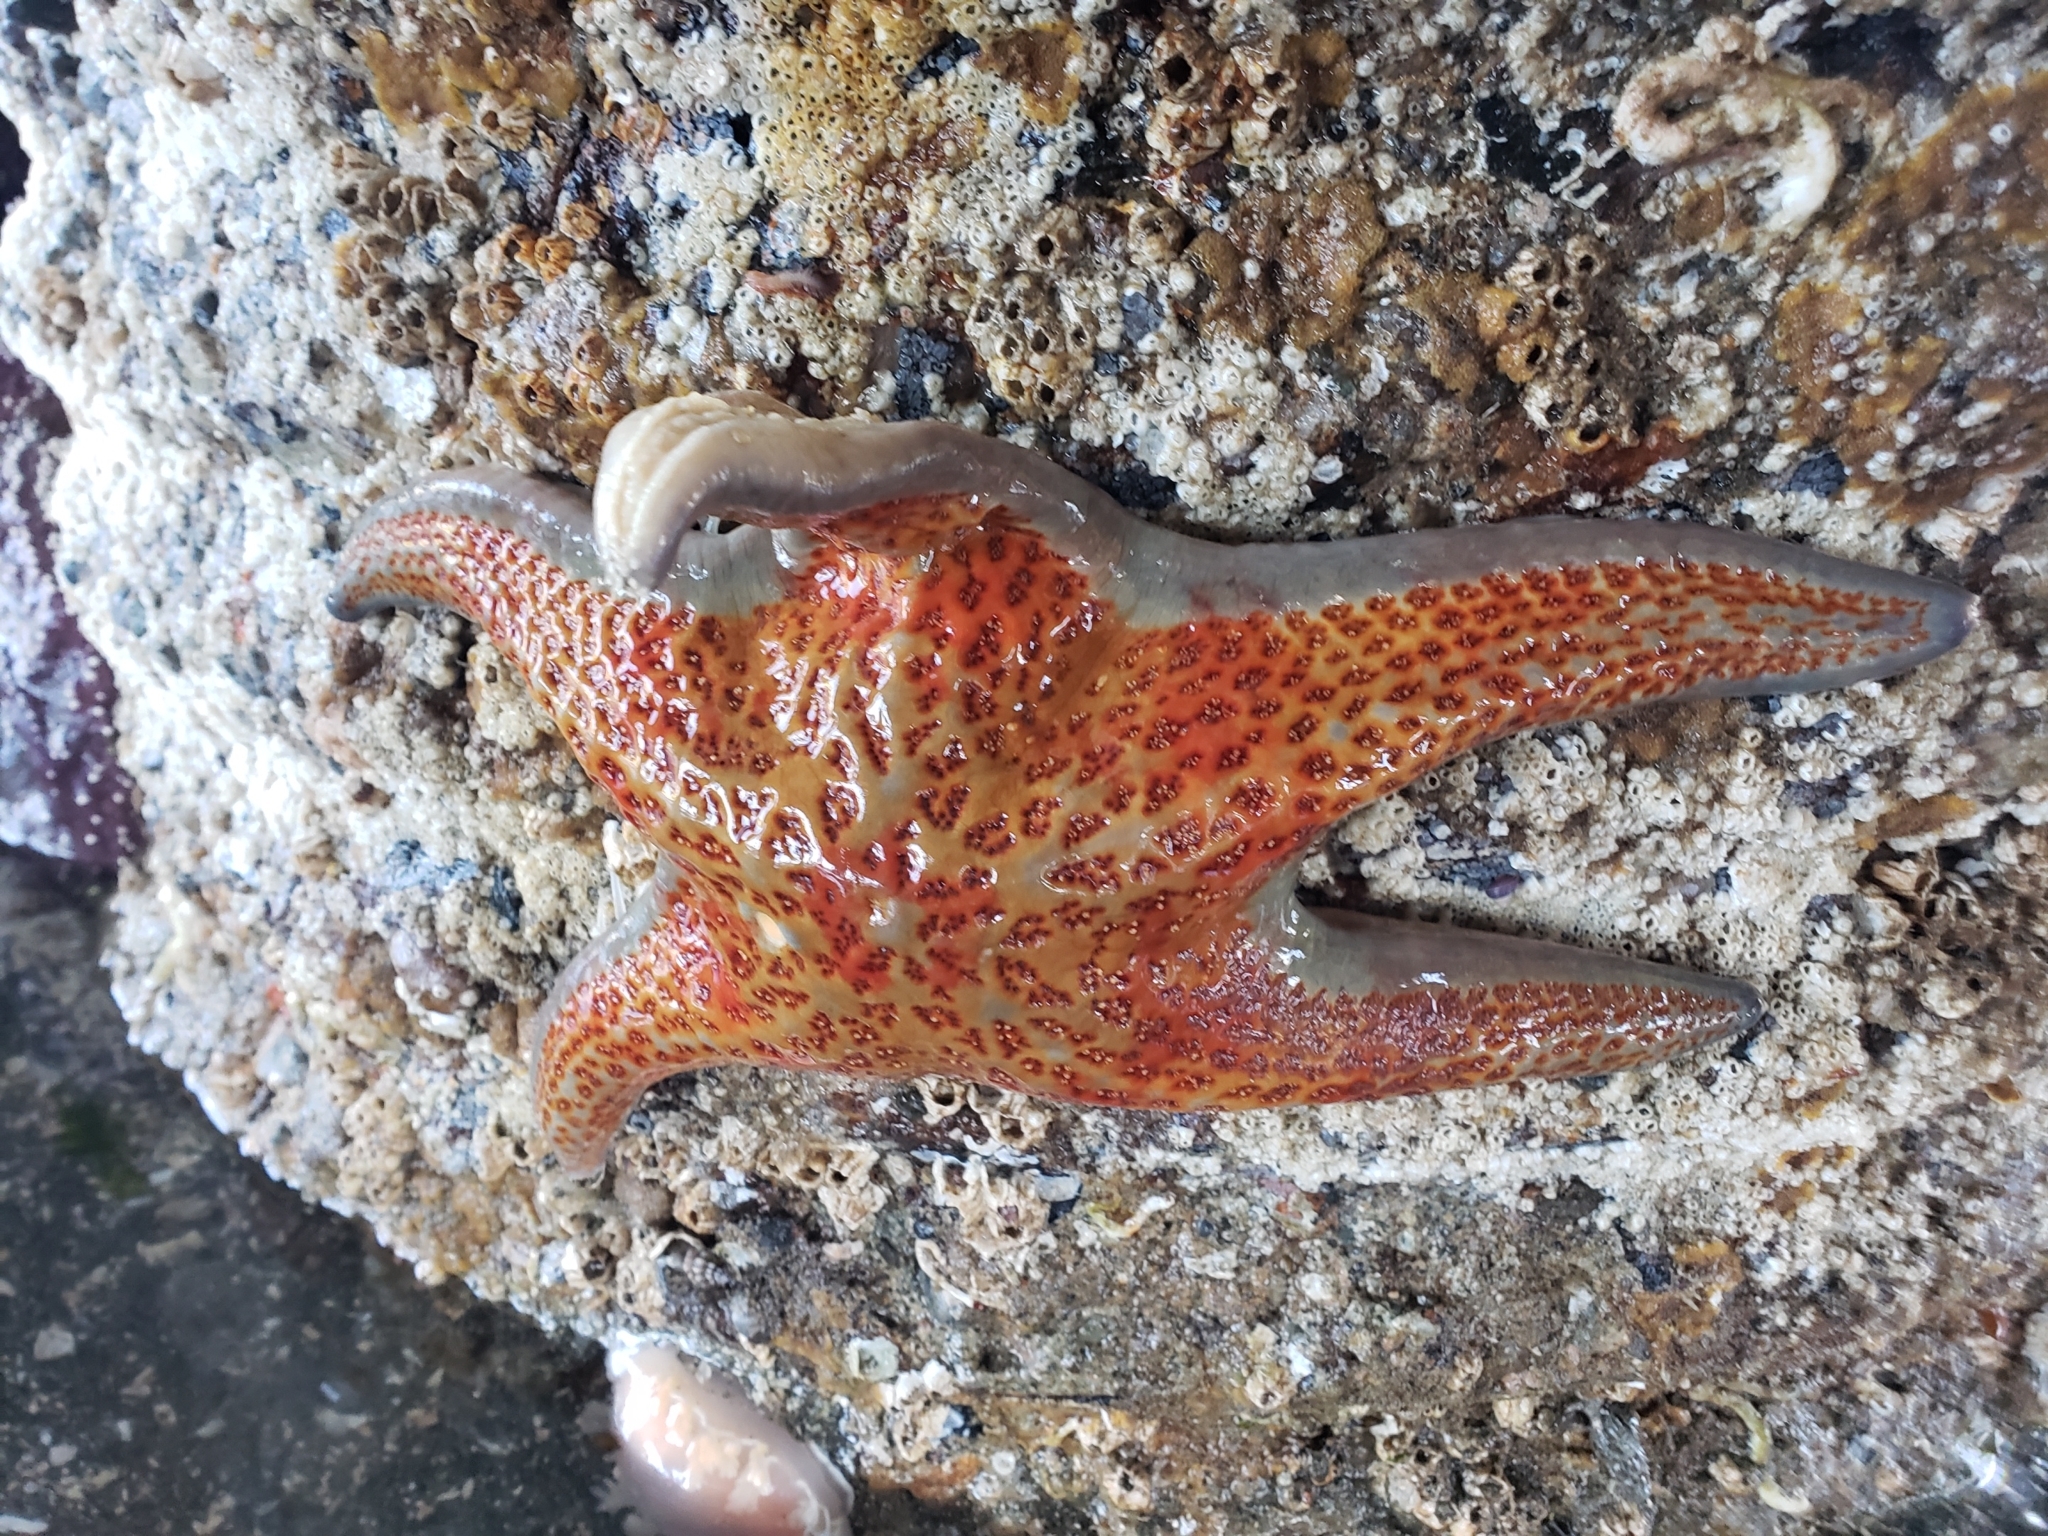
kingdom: Animalia
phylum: Echinodermata
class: Asteroidea
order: Valvatida
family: Asteropseidae
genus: Dermasterias
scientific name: Dermasterias imbricata
